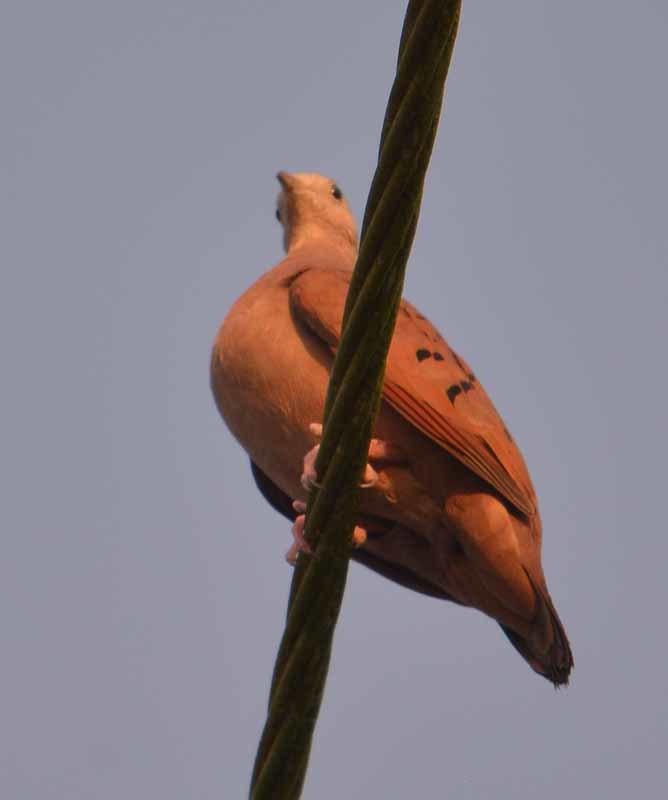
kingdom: Animalia
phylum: Chordata
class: Aves
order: Columbiformes
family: Columbidae
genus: Columbina
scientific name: Columbina talpacoti
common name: Ruddy ground dove
